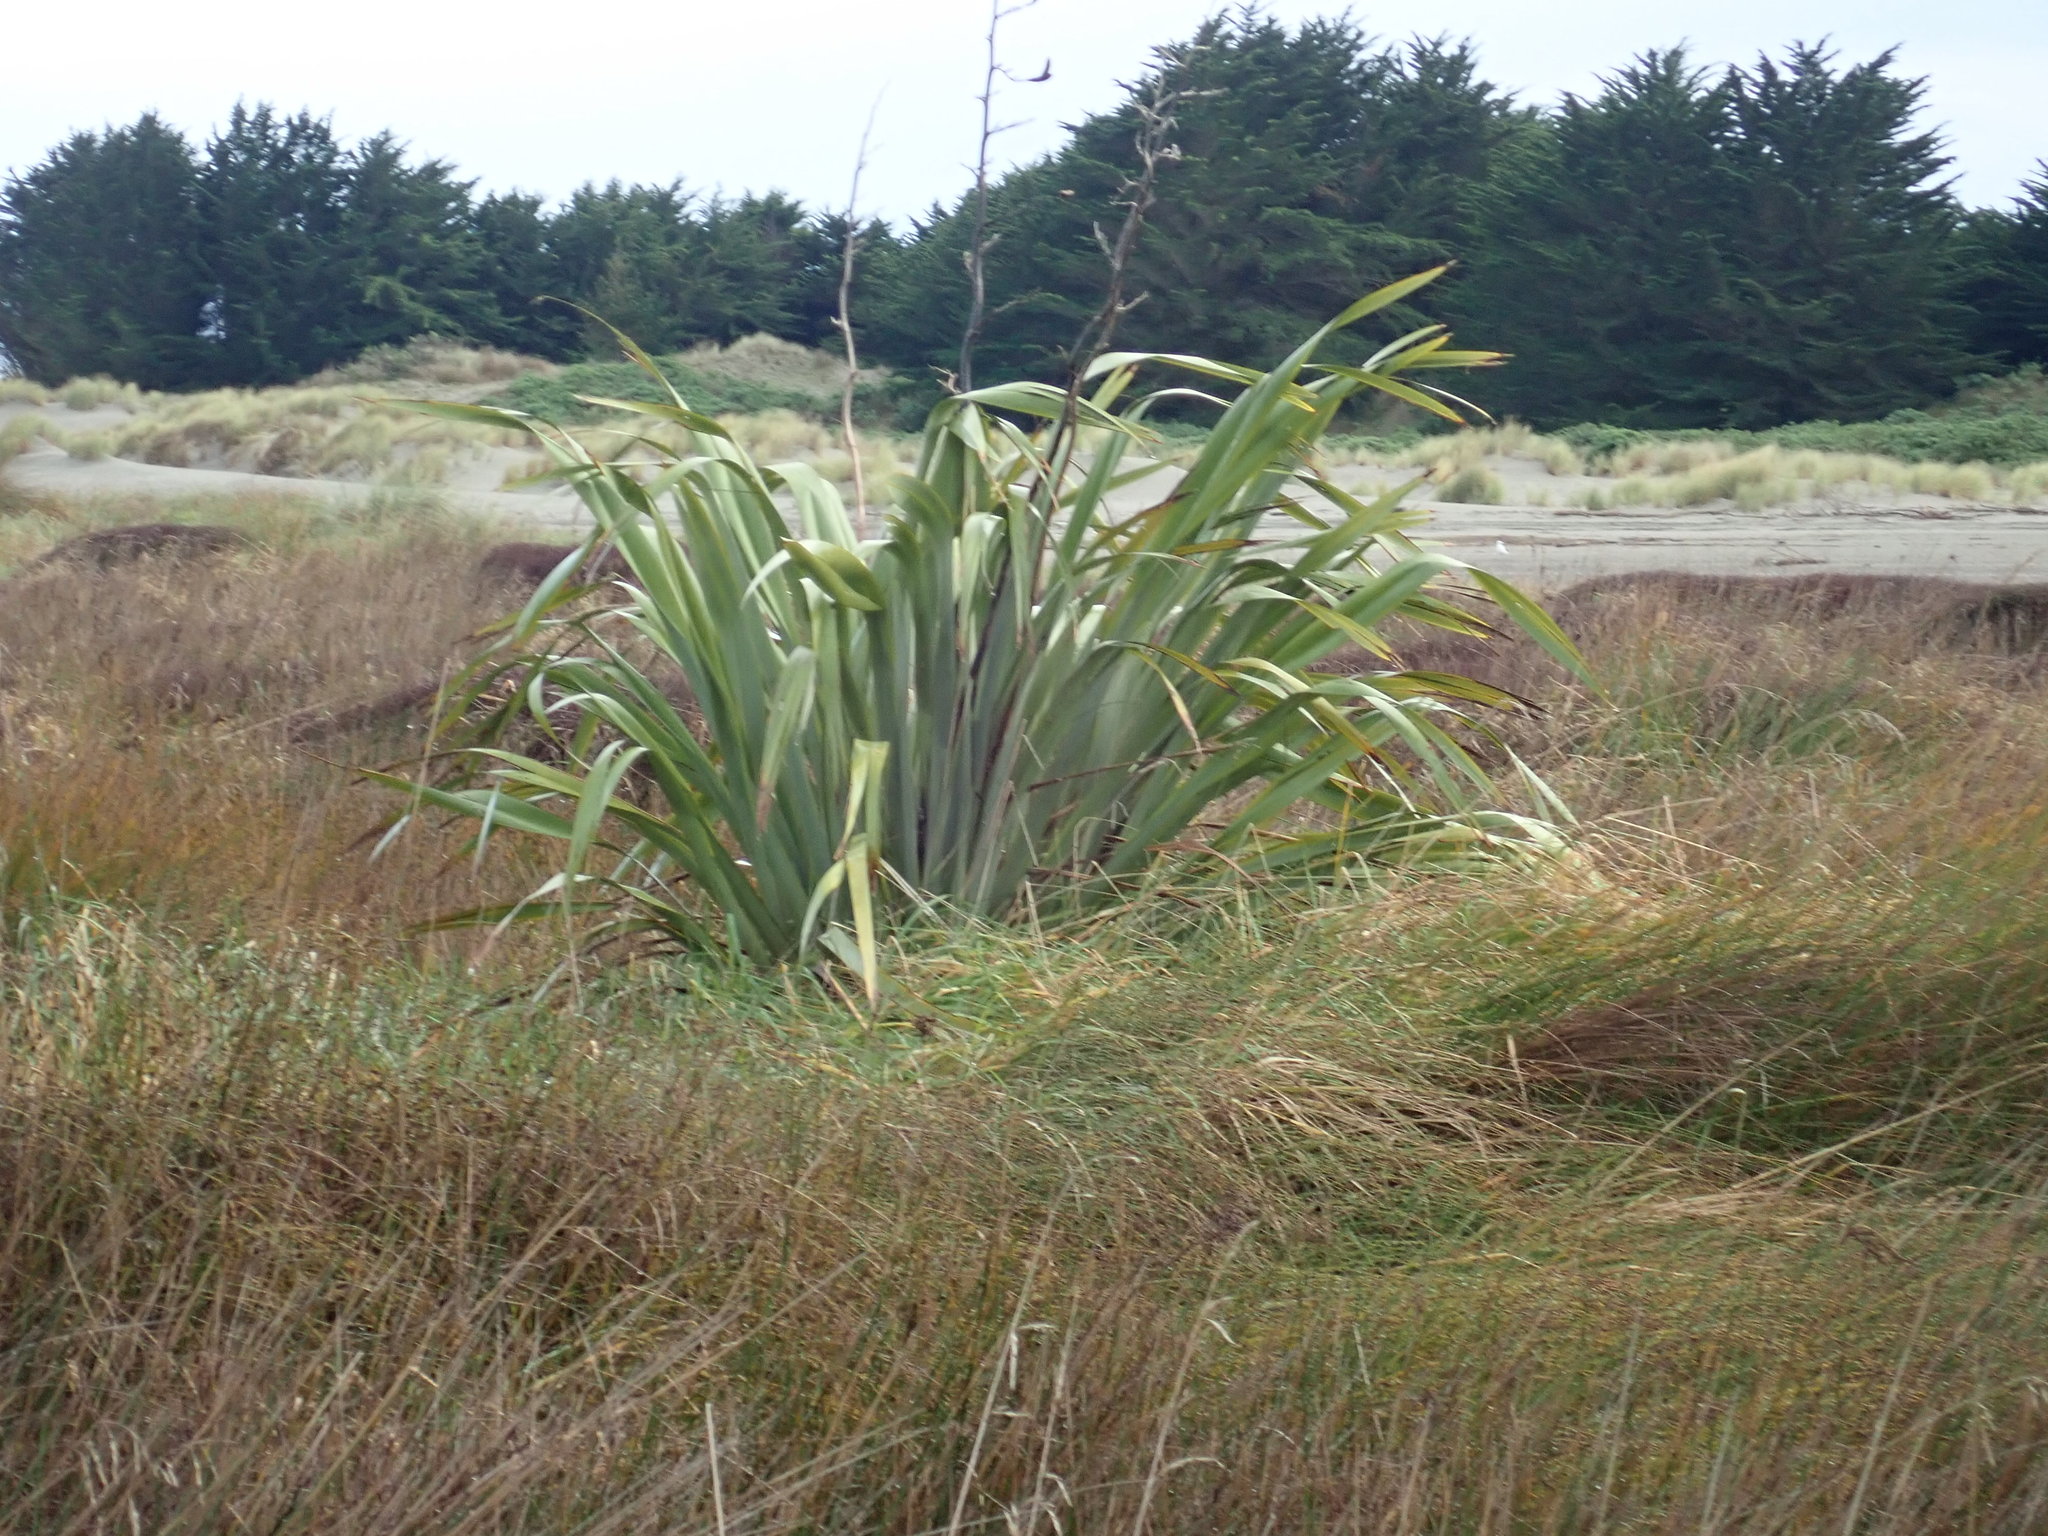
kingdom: Plantae
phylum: Tracheophyta
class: Liliopsida
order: Asparagales
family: Asphodelaceae
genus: Phormium
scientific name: Phormium tenax
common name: New zealand flax
